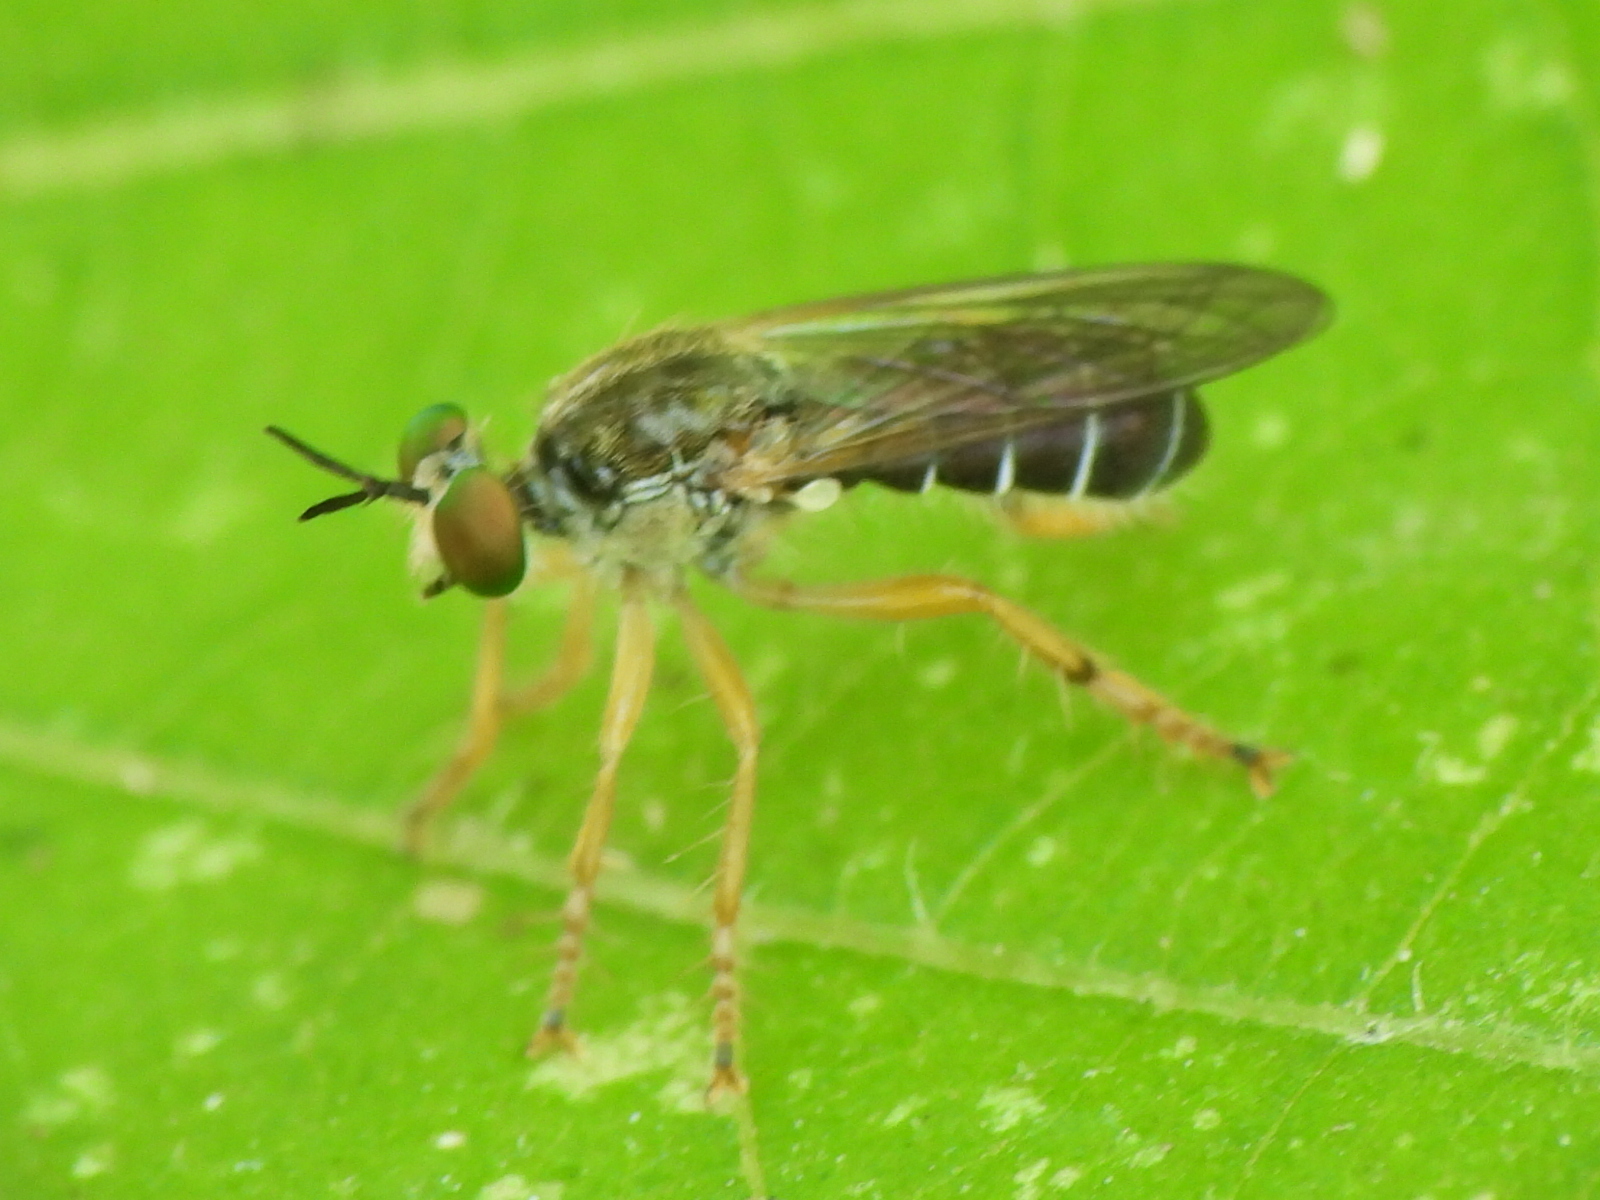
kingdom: Animalia
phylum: Arthropoda
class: Insecta
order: Diptera
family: Asilidae
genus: Atomosia
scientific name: Atomosia rufipes
